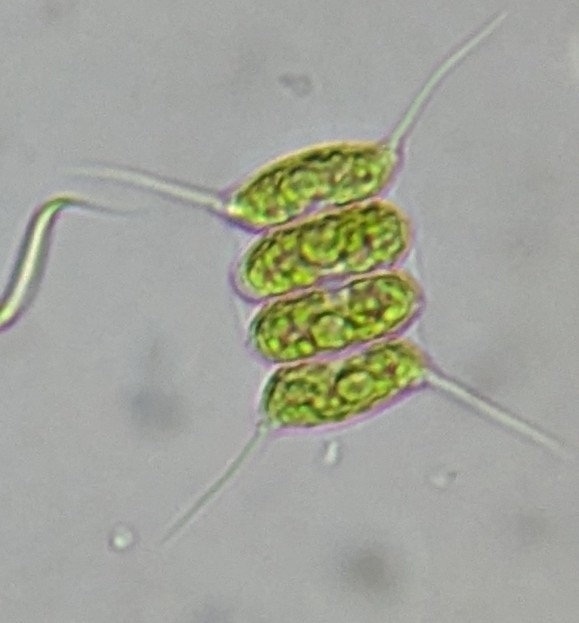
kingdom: Plantae
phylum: Chlorophyta
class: Chlorophyceae
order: Sphaeropleales
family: Scenedesmaceae
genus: Desmodesmus
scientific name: Desmodesmus maximus
